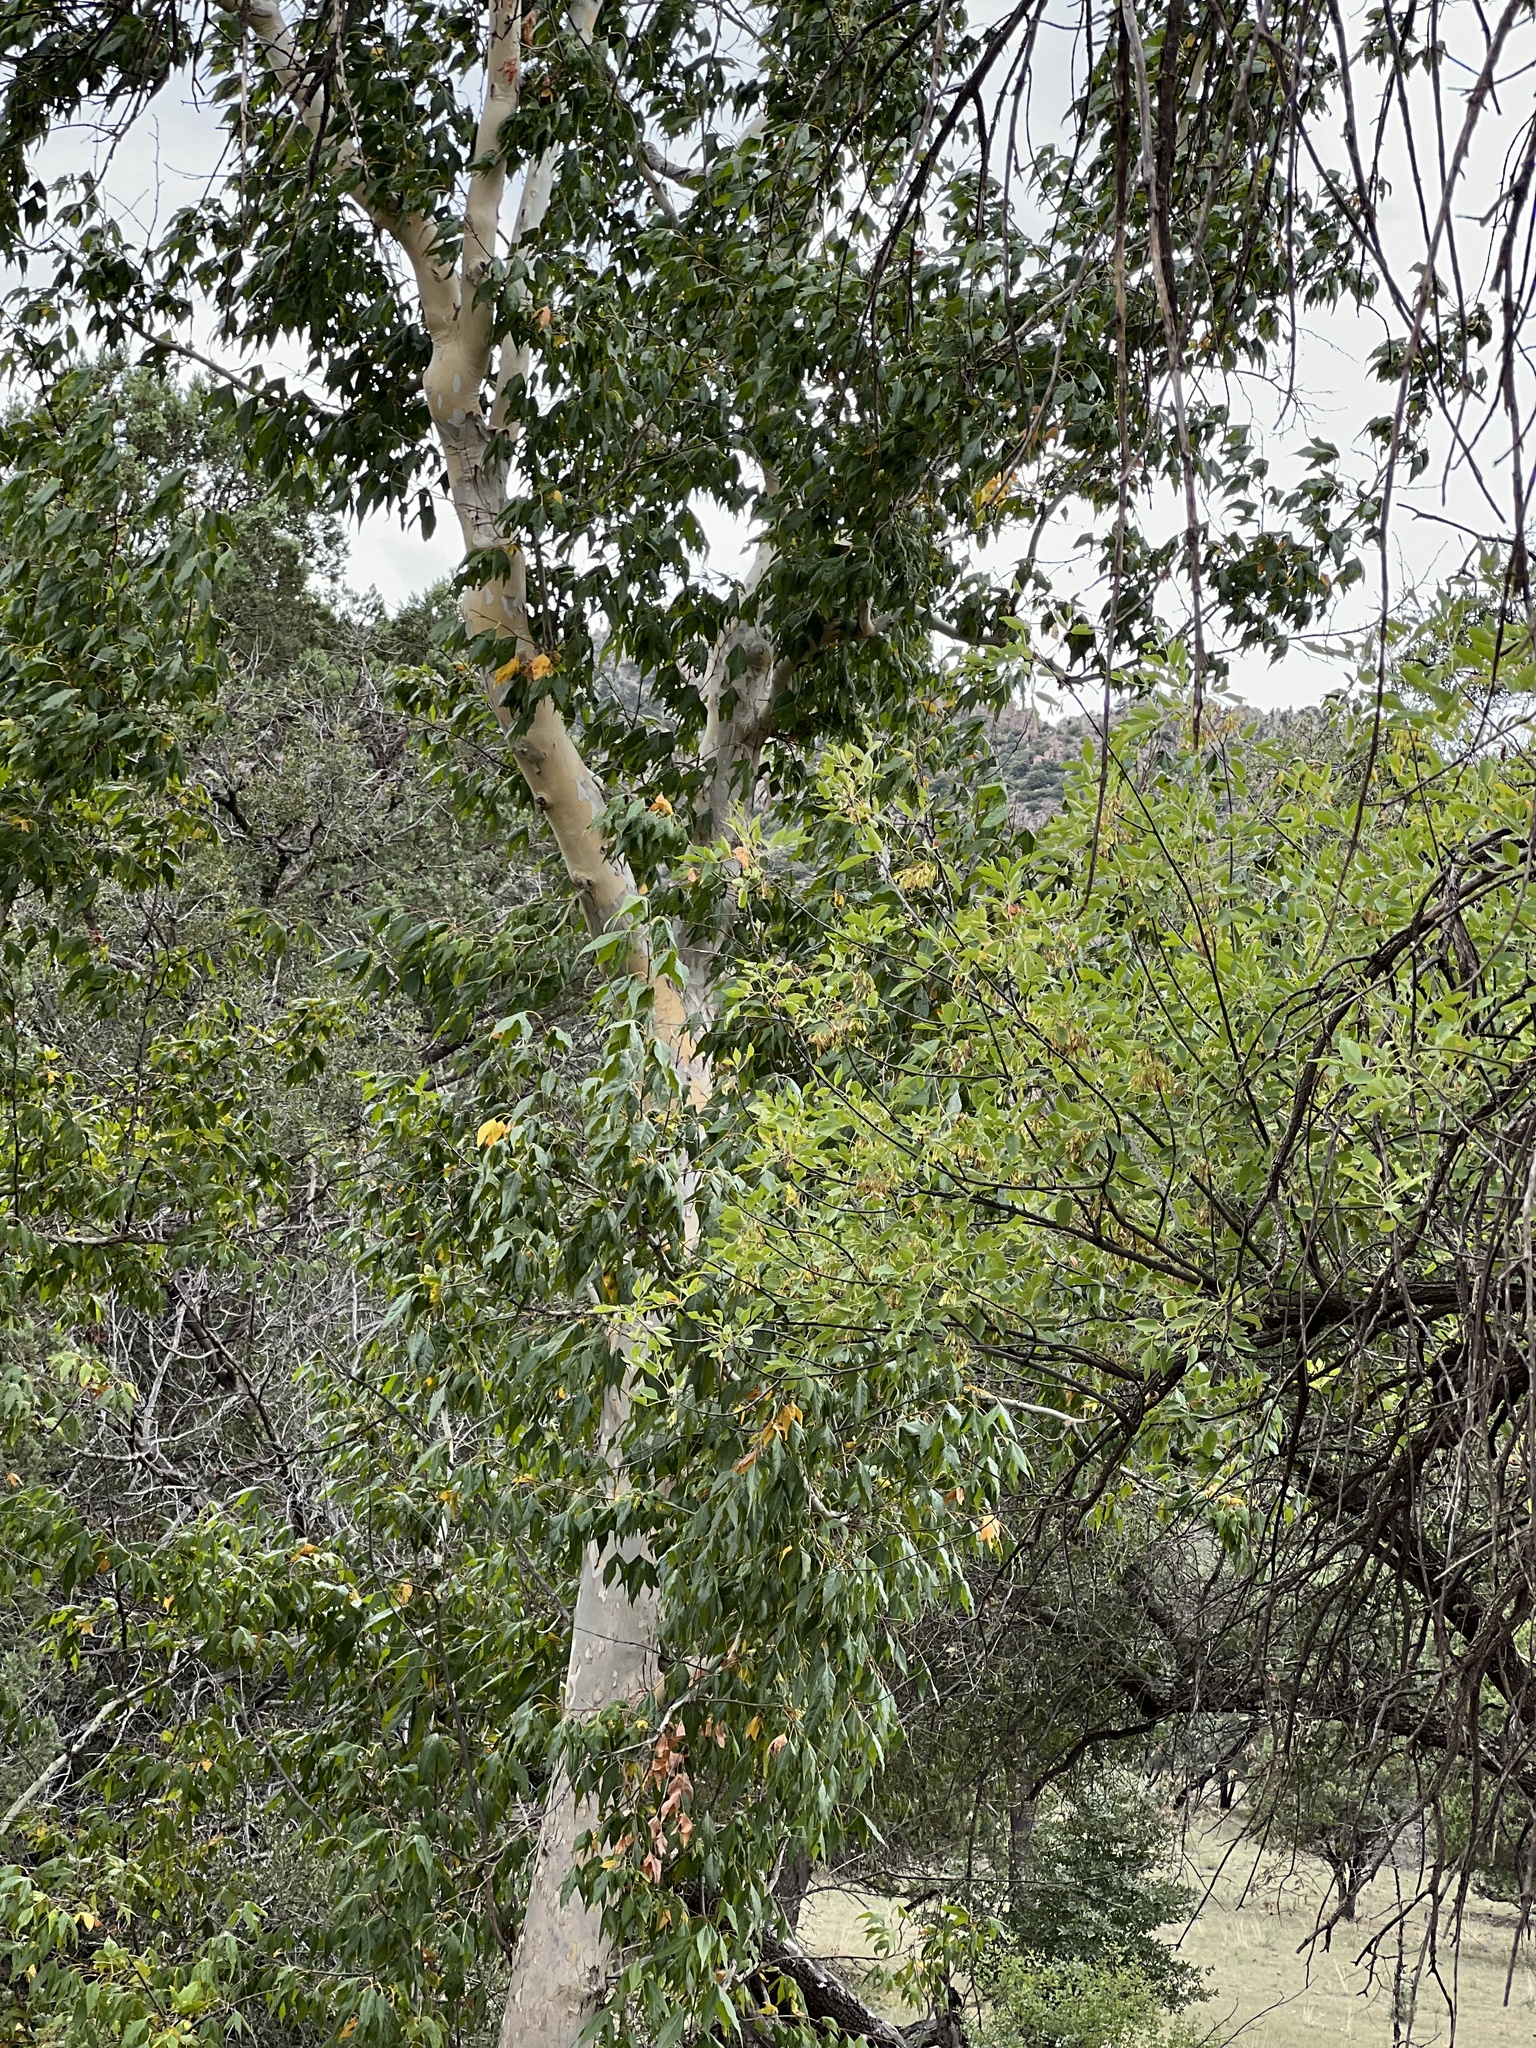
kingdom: Plantae
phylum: Tracheophyta
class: Magnoliopsida
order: Proteales
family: Platanaceae
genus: Platanus
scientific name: Platanus wrightii
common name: Arizona sycamore
